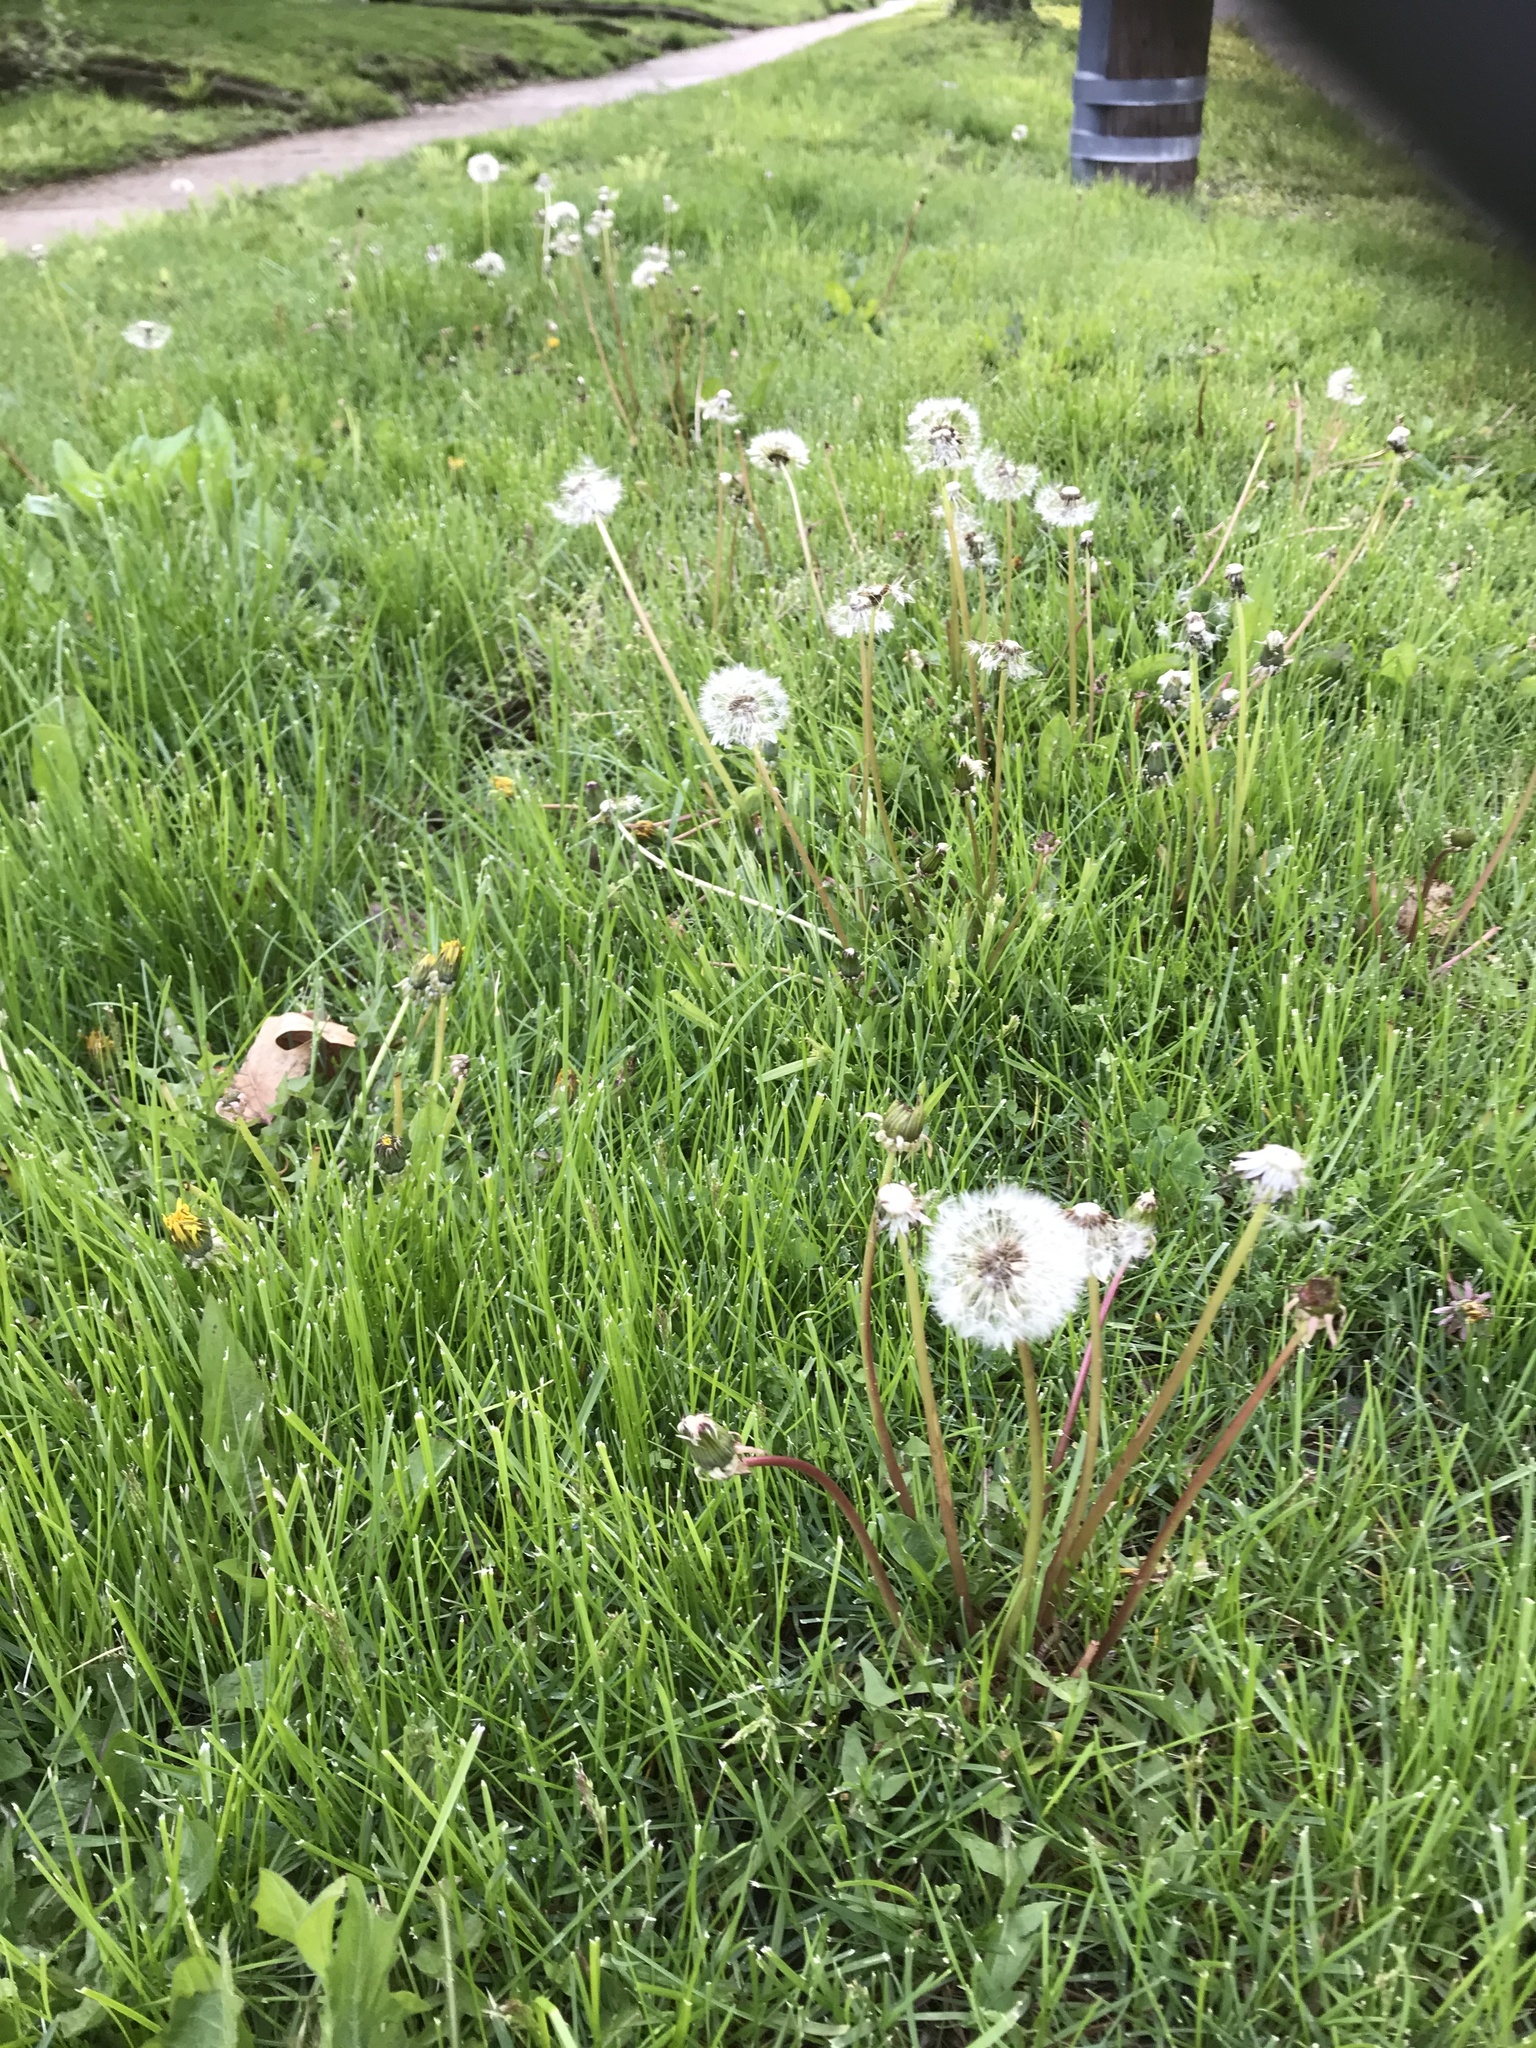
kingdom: Plantae
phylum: Tracheophyta
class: Magnoliopsida
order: Asterales
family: Asteraceae
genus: Taraxacum
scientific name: Taraxacum officinale
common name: Common dandelion
